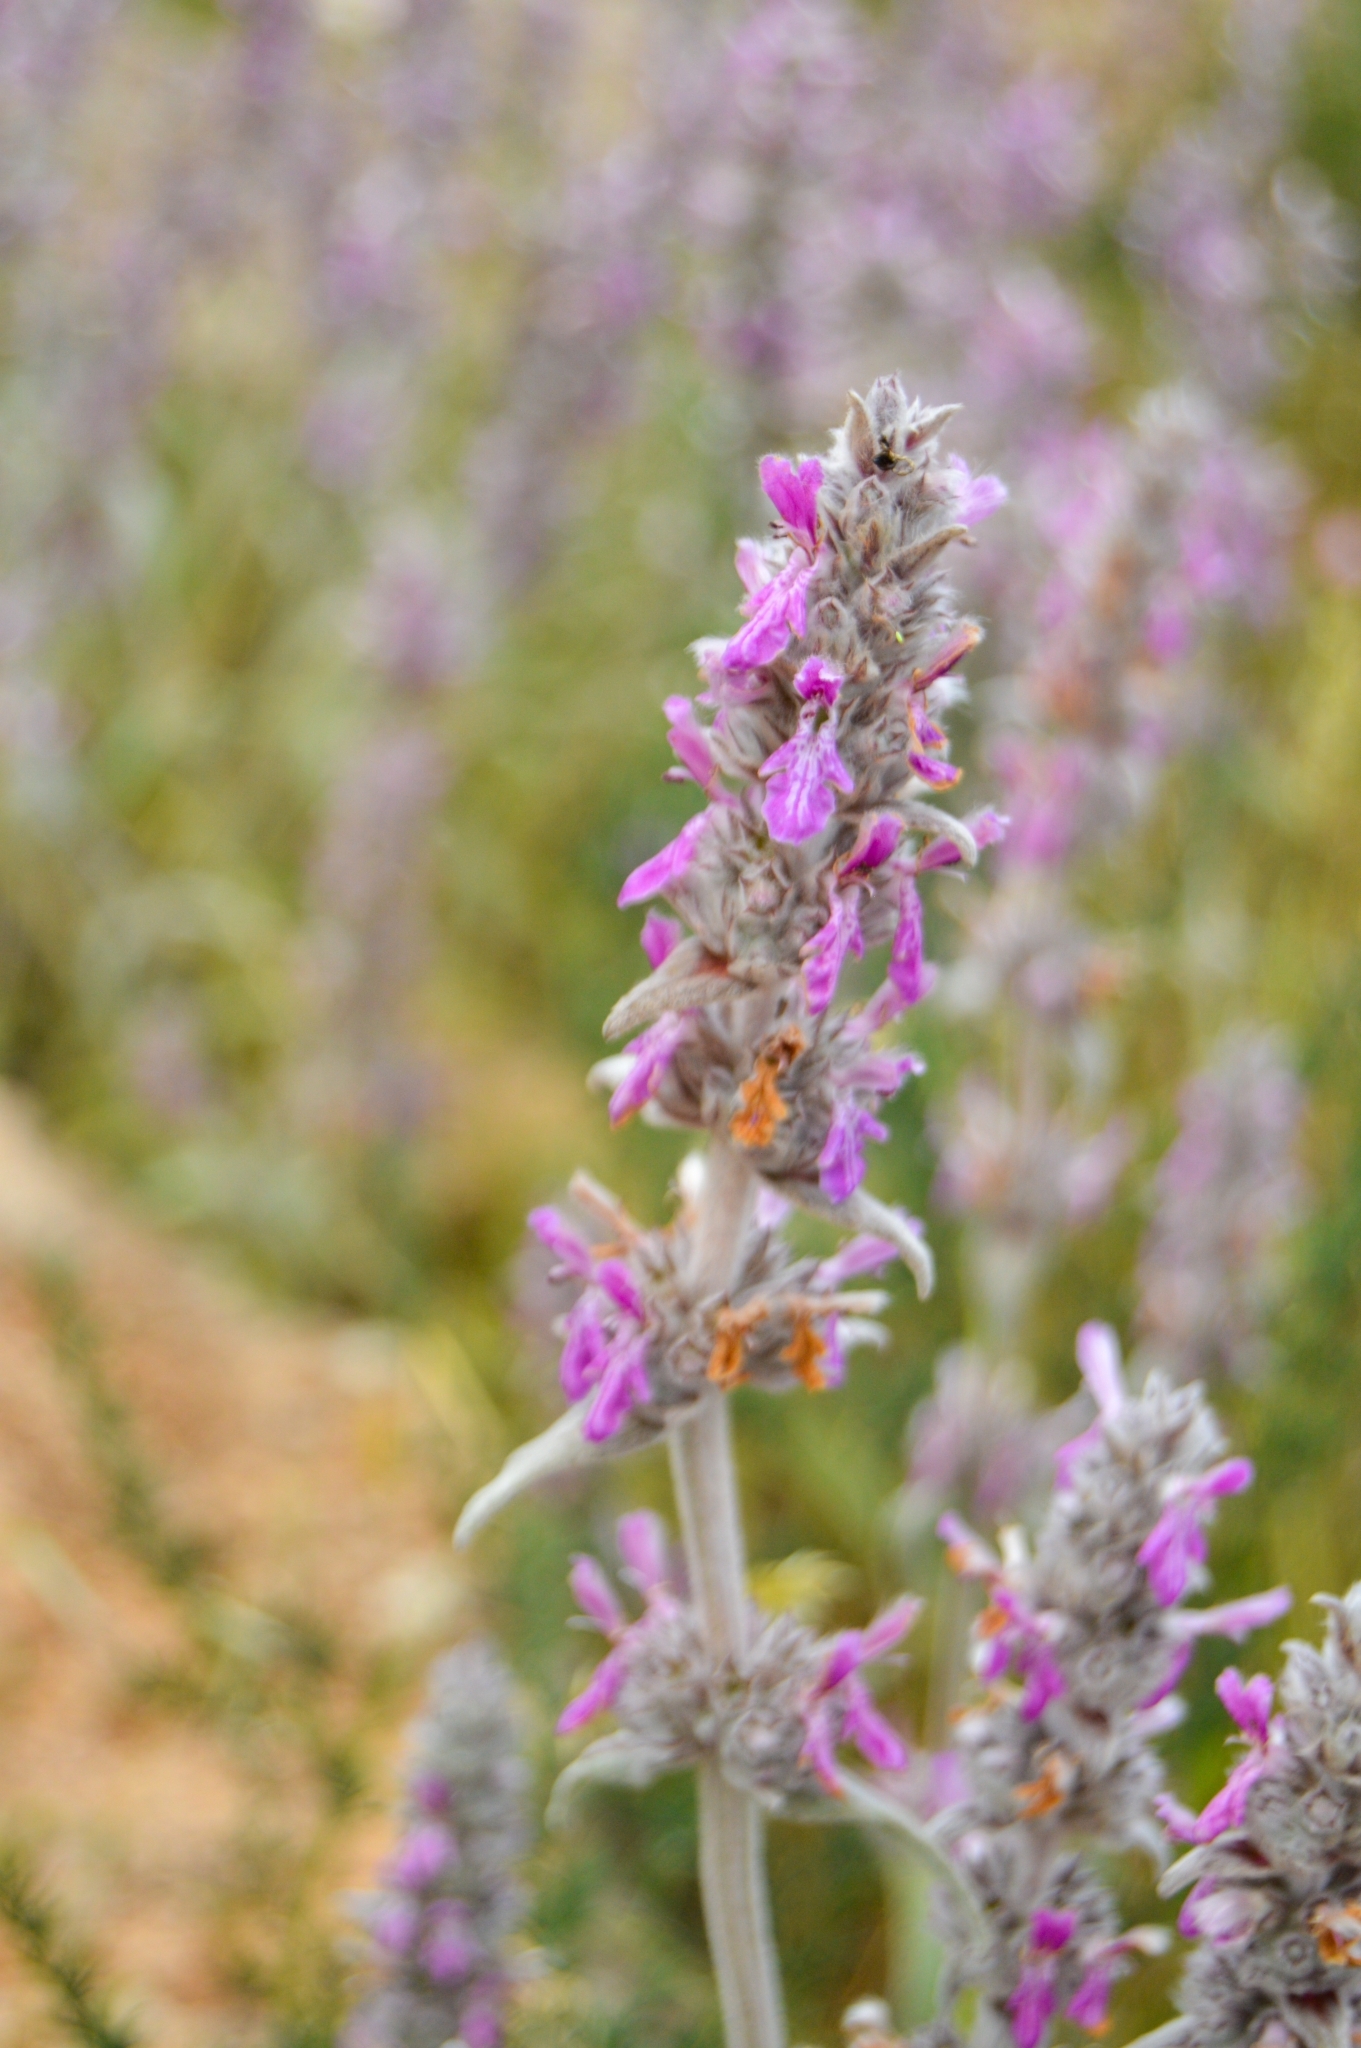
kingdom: Plantae
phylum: Tracheophyta
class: Magnoliopsida
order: Lamiales
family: Lamiaceae
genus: Stachys
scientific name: Stachys cretica
